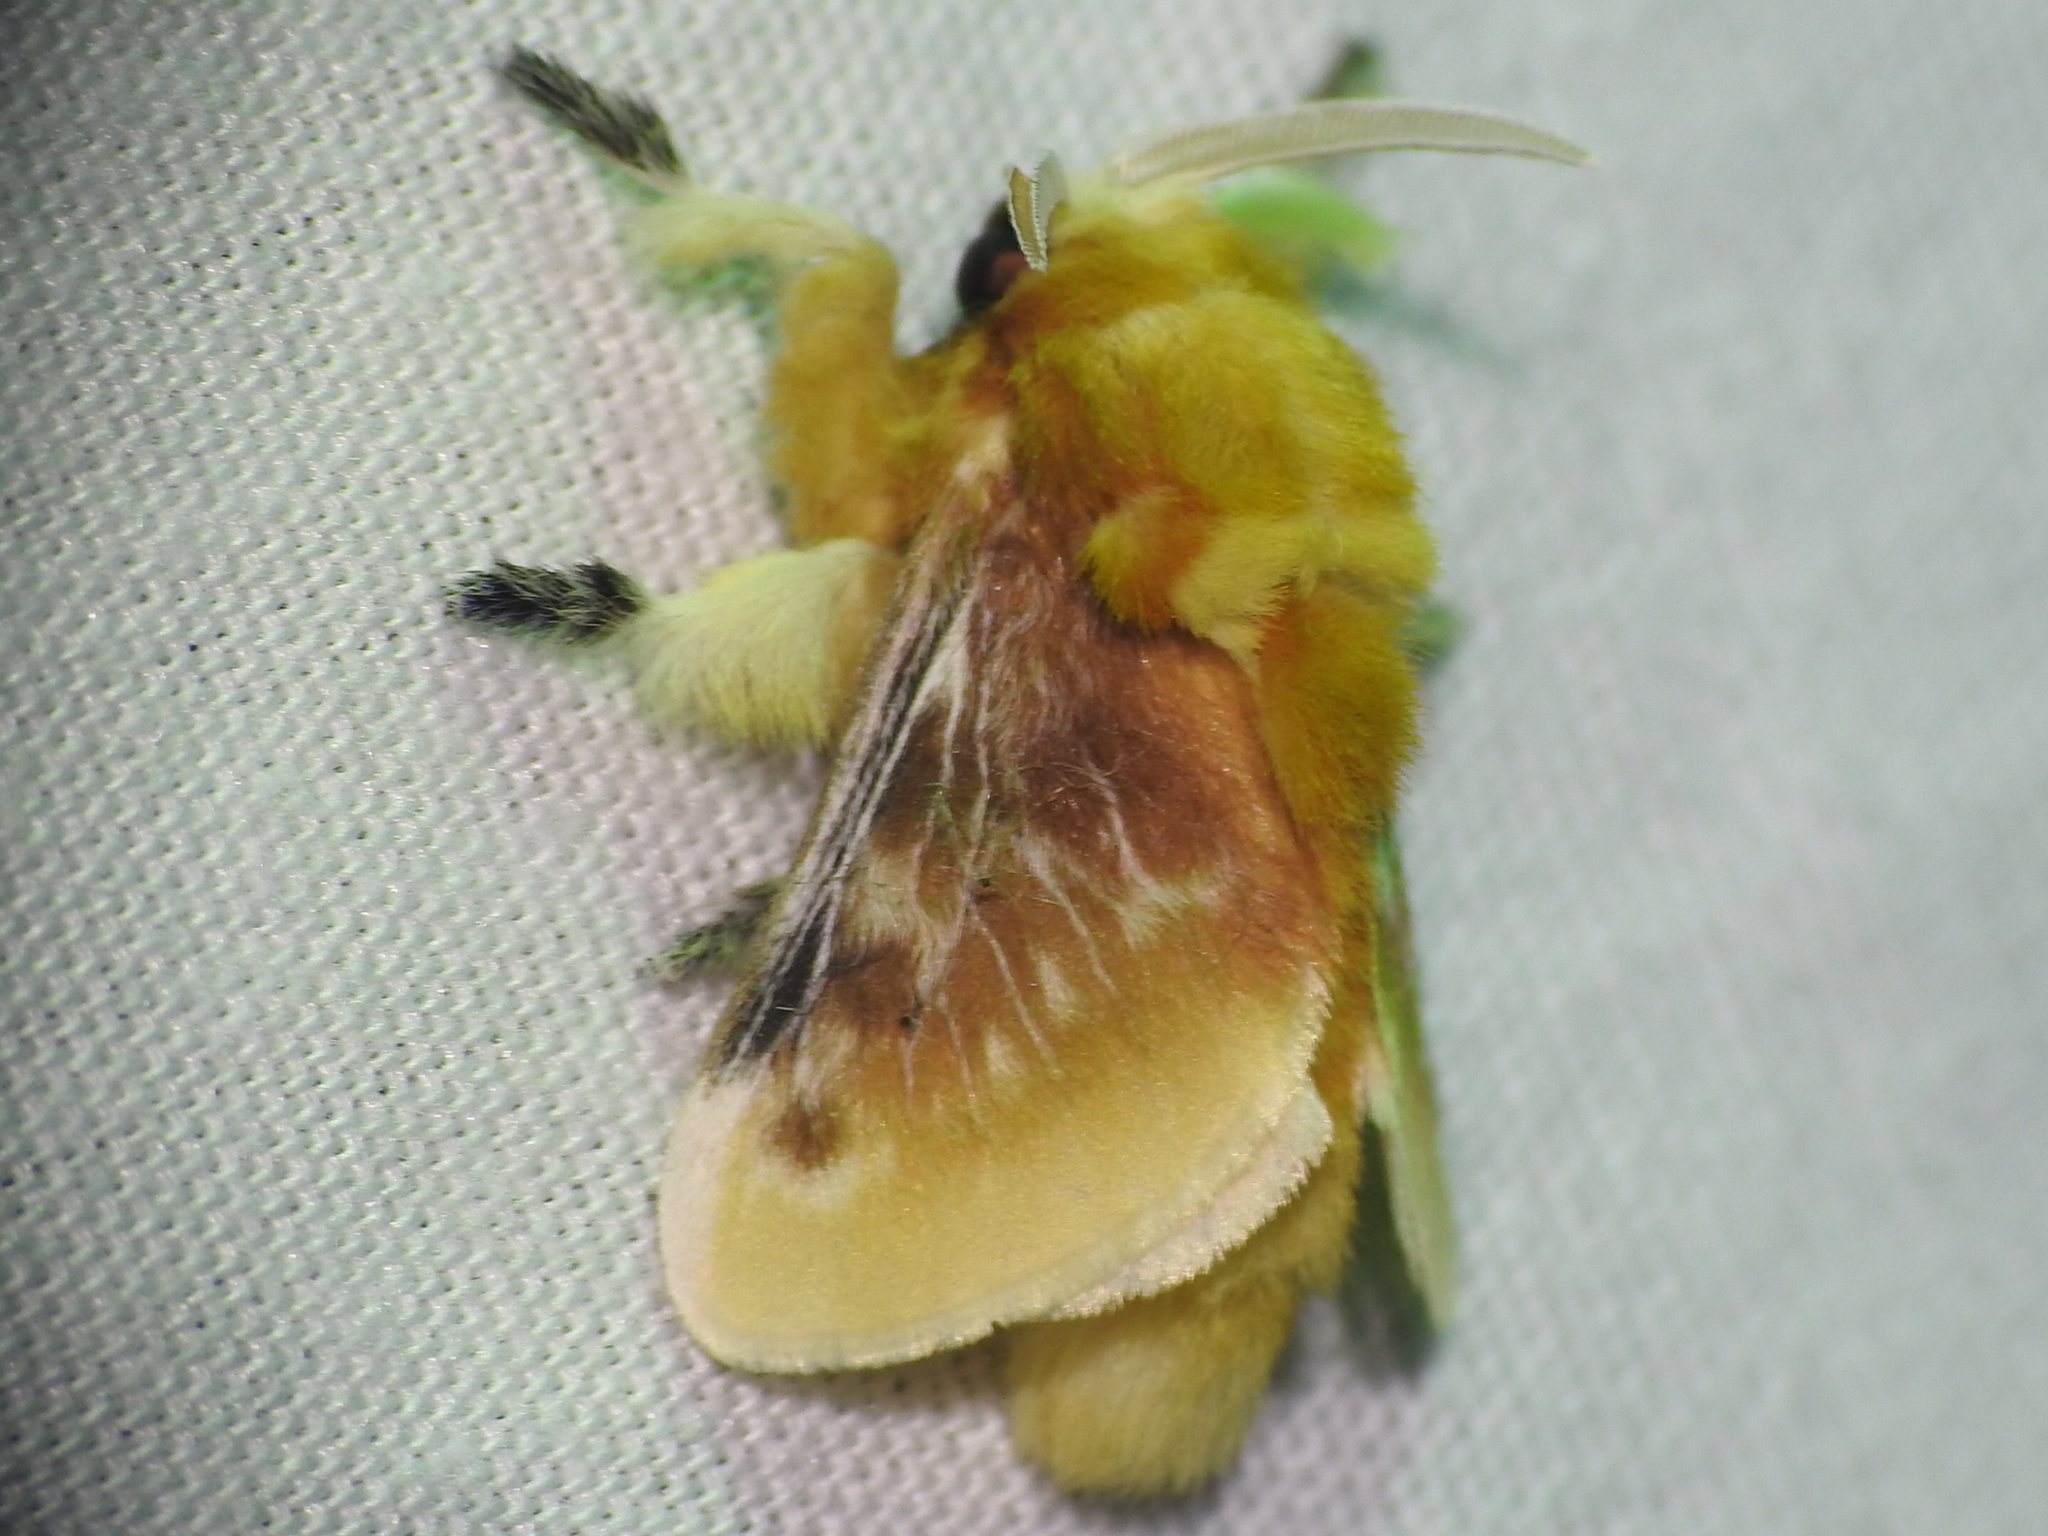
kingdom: Animalia
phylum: Arthropoda
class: Insecta
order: Lepidoptera
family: Megalopygidae
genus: Megalopyge
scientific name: Megalopyge opercularis
